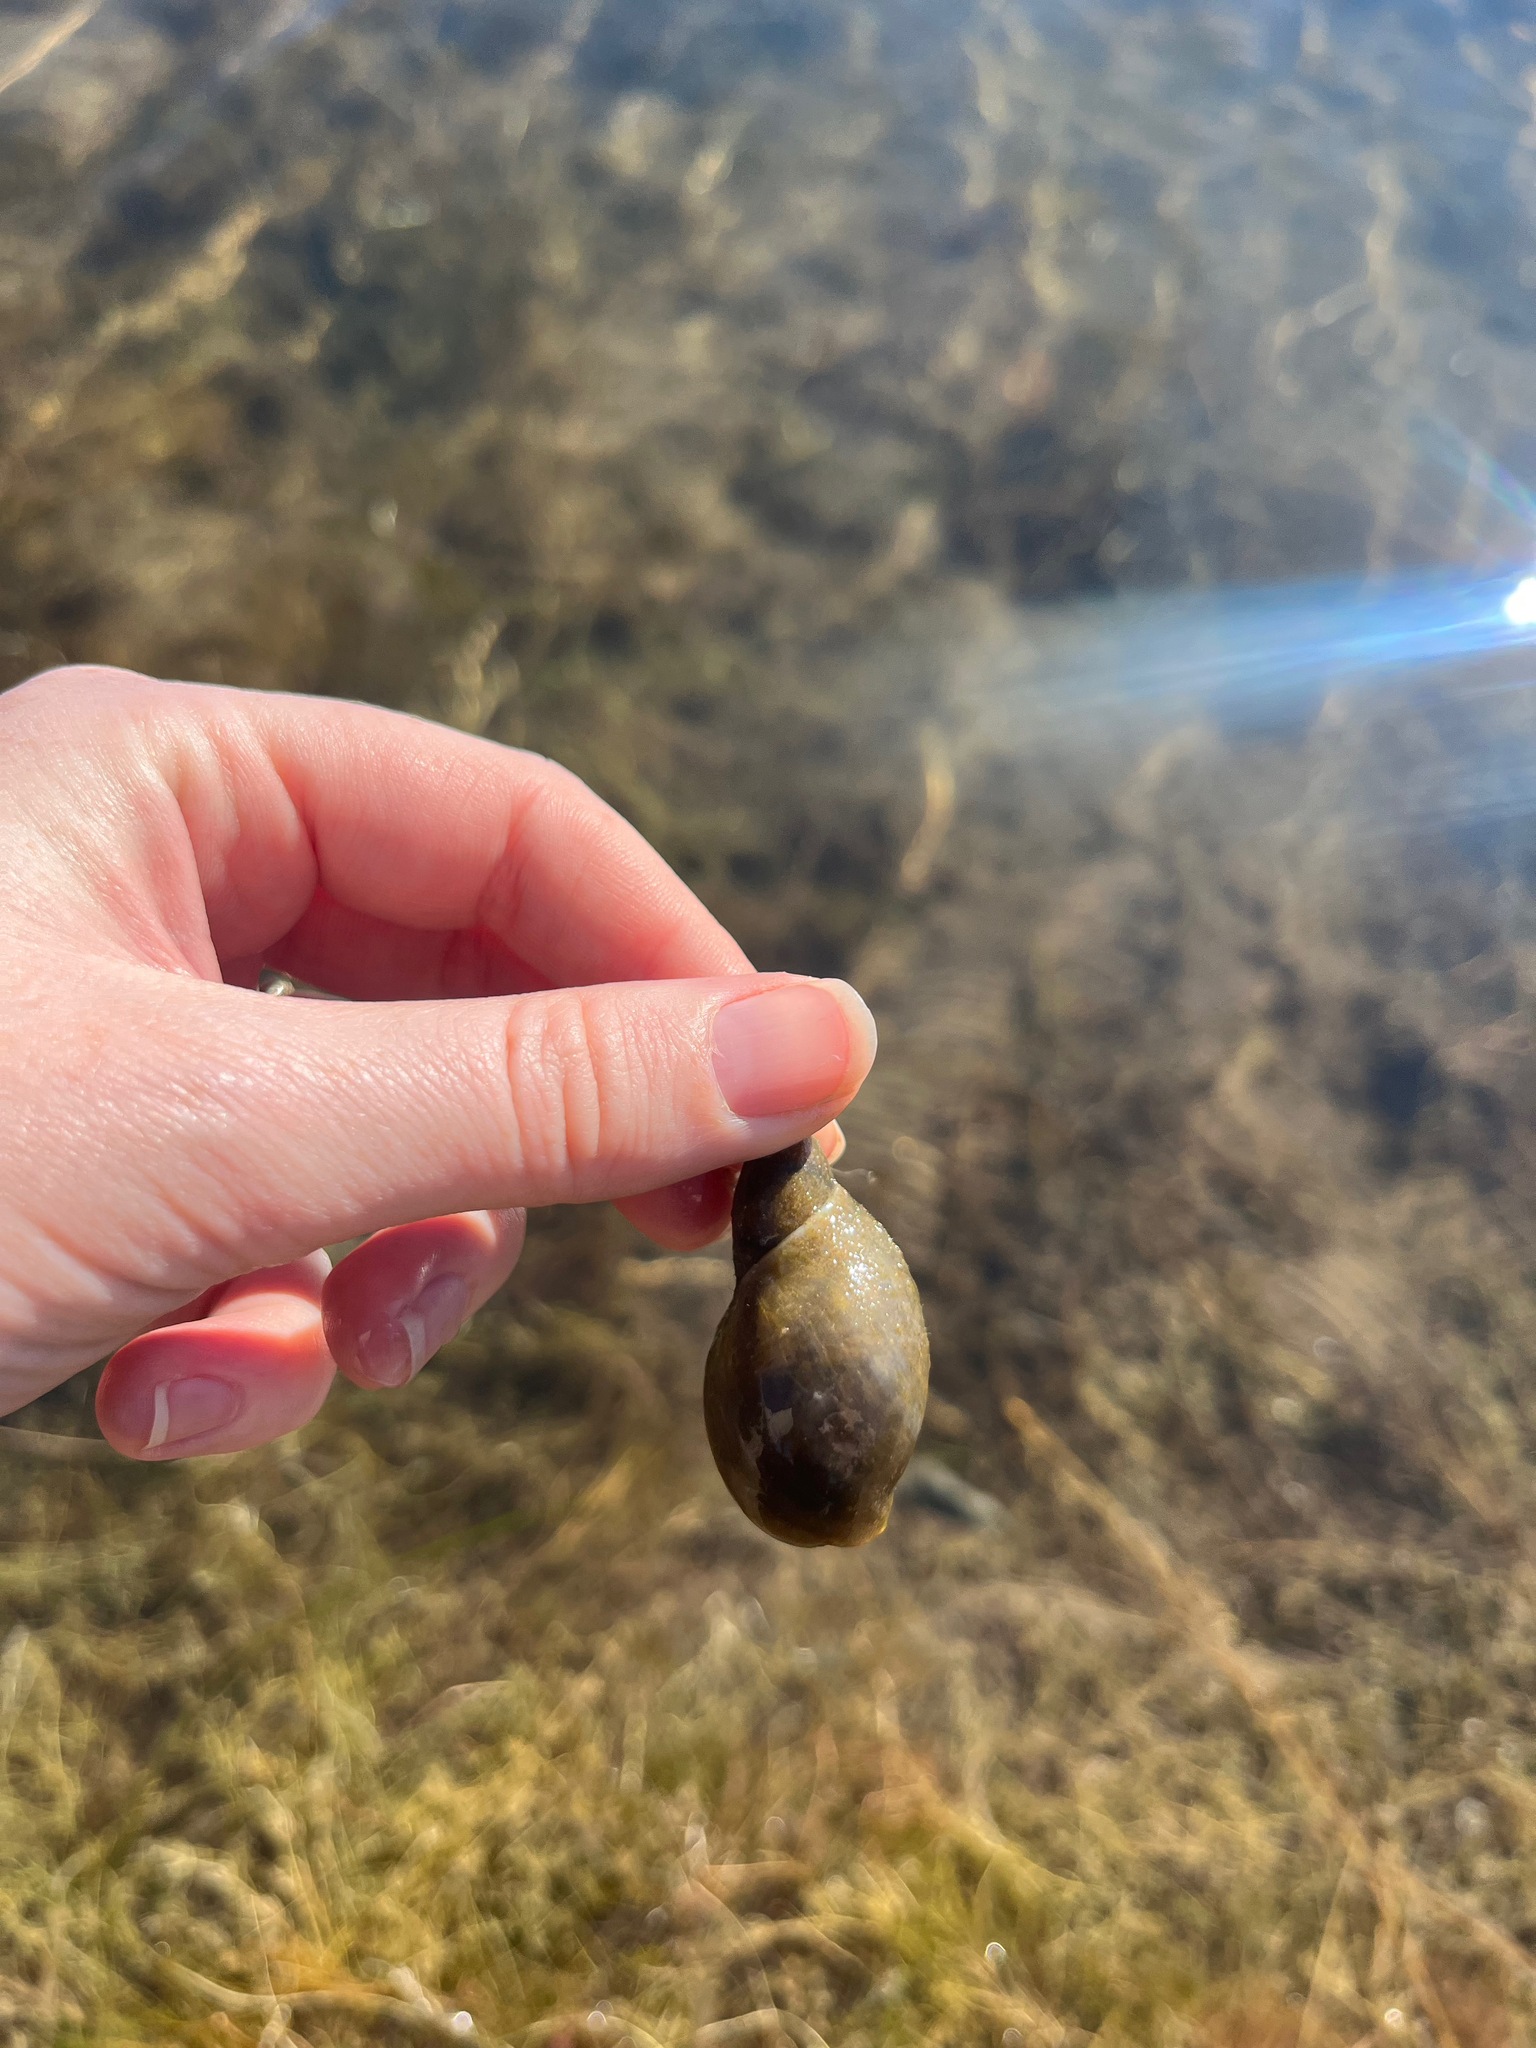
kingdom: Animalia
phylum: Mollusca
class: Gastropoda
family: Lymnaeidae
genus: Lymnaea
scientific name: Lymnaea stagnalis
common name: Great pond snail
